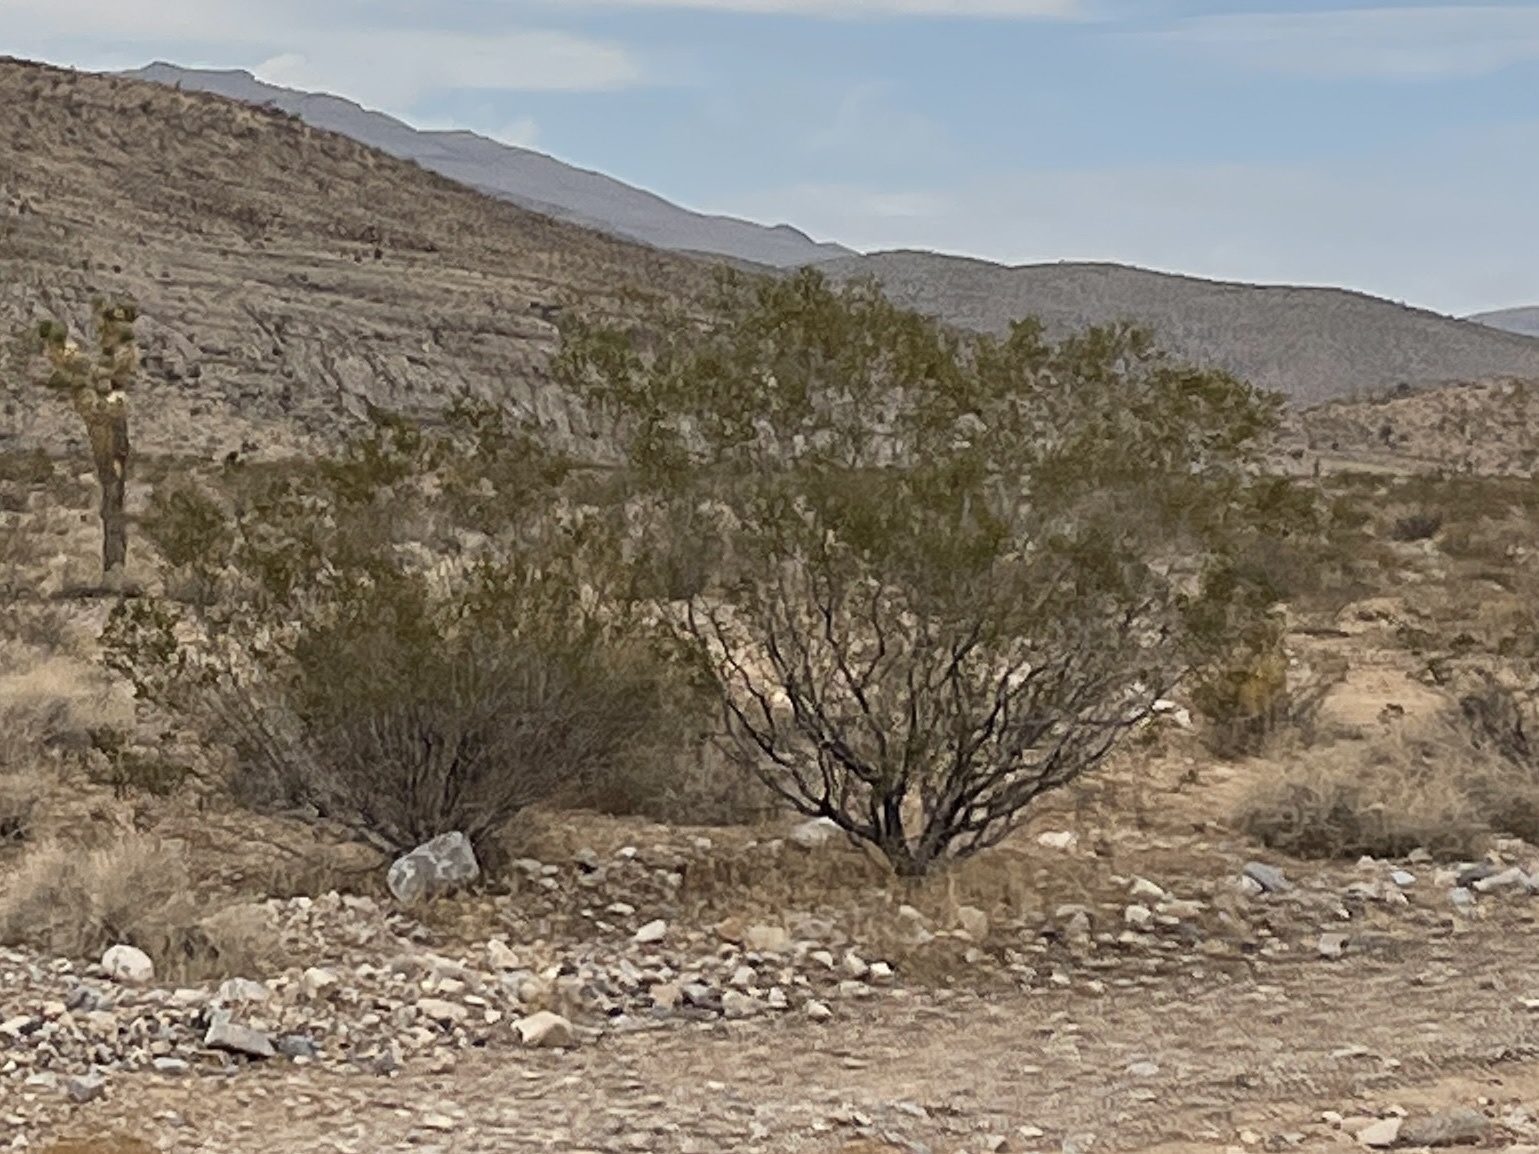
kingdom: Plantae
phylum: Tracheophyta
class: Magnoliopsida
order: Zygophyllales
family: Zygophyllaceae
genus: Larrea
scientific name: Larrea tridentata
